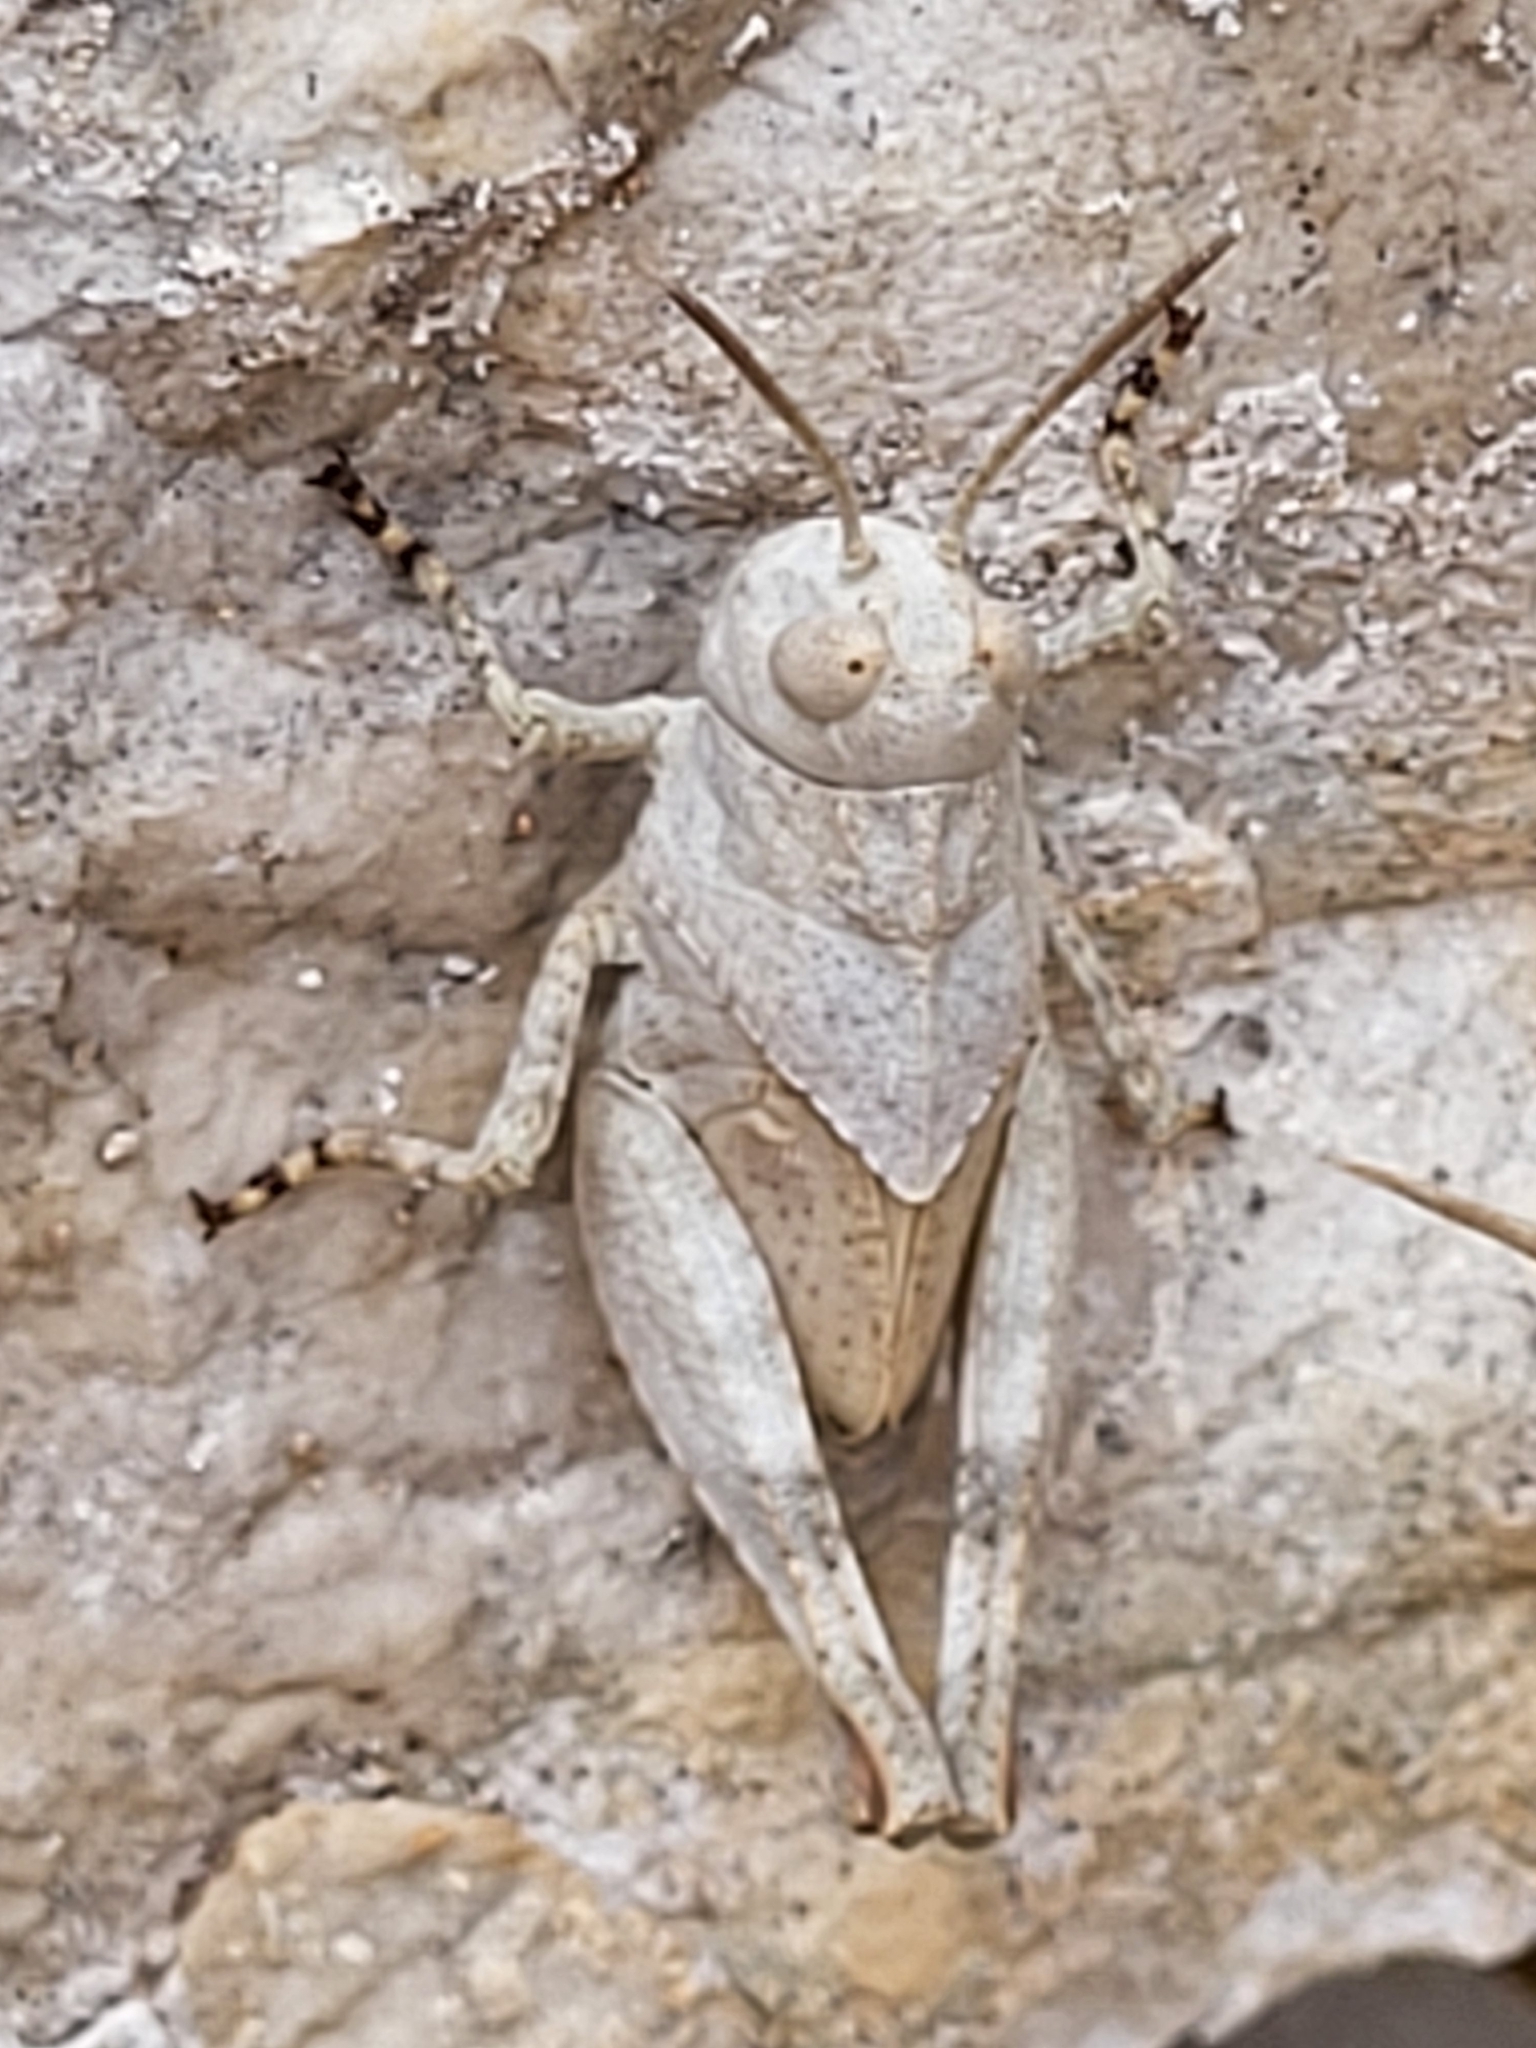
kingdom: Animalia
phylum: Arthropoda
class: Insecta
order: Orthoptera
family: Acrididae
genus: Oedipoda
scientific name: Oedipoda
